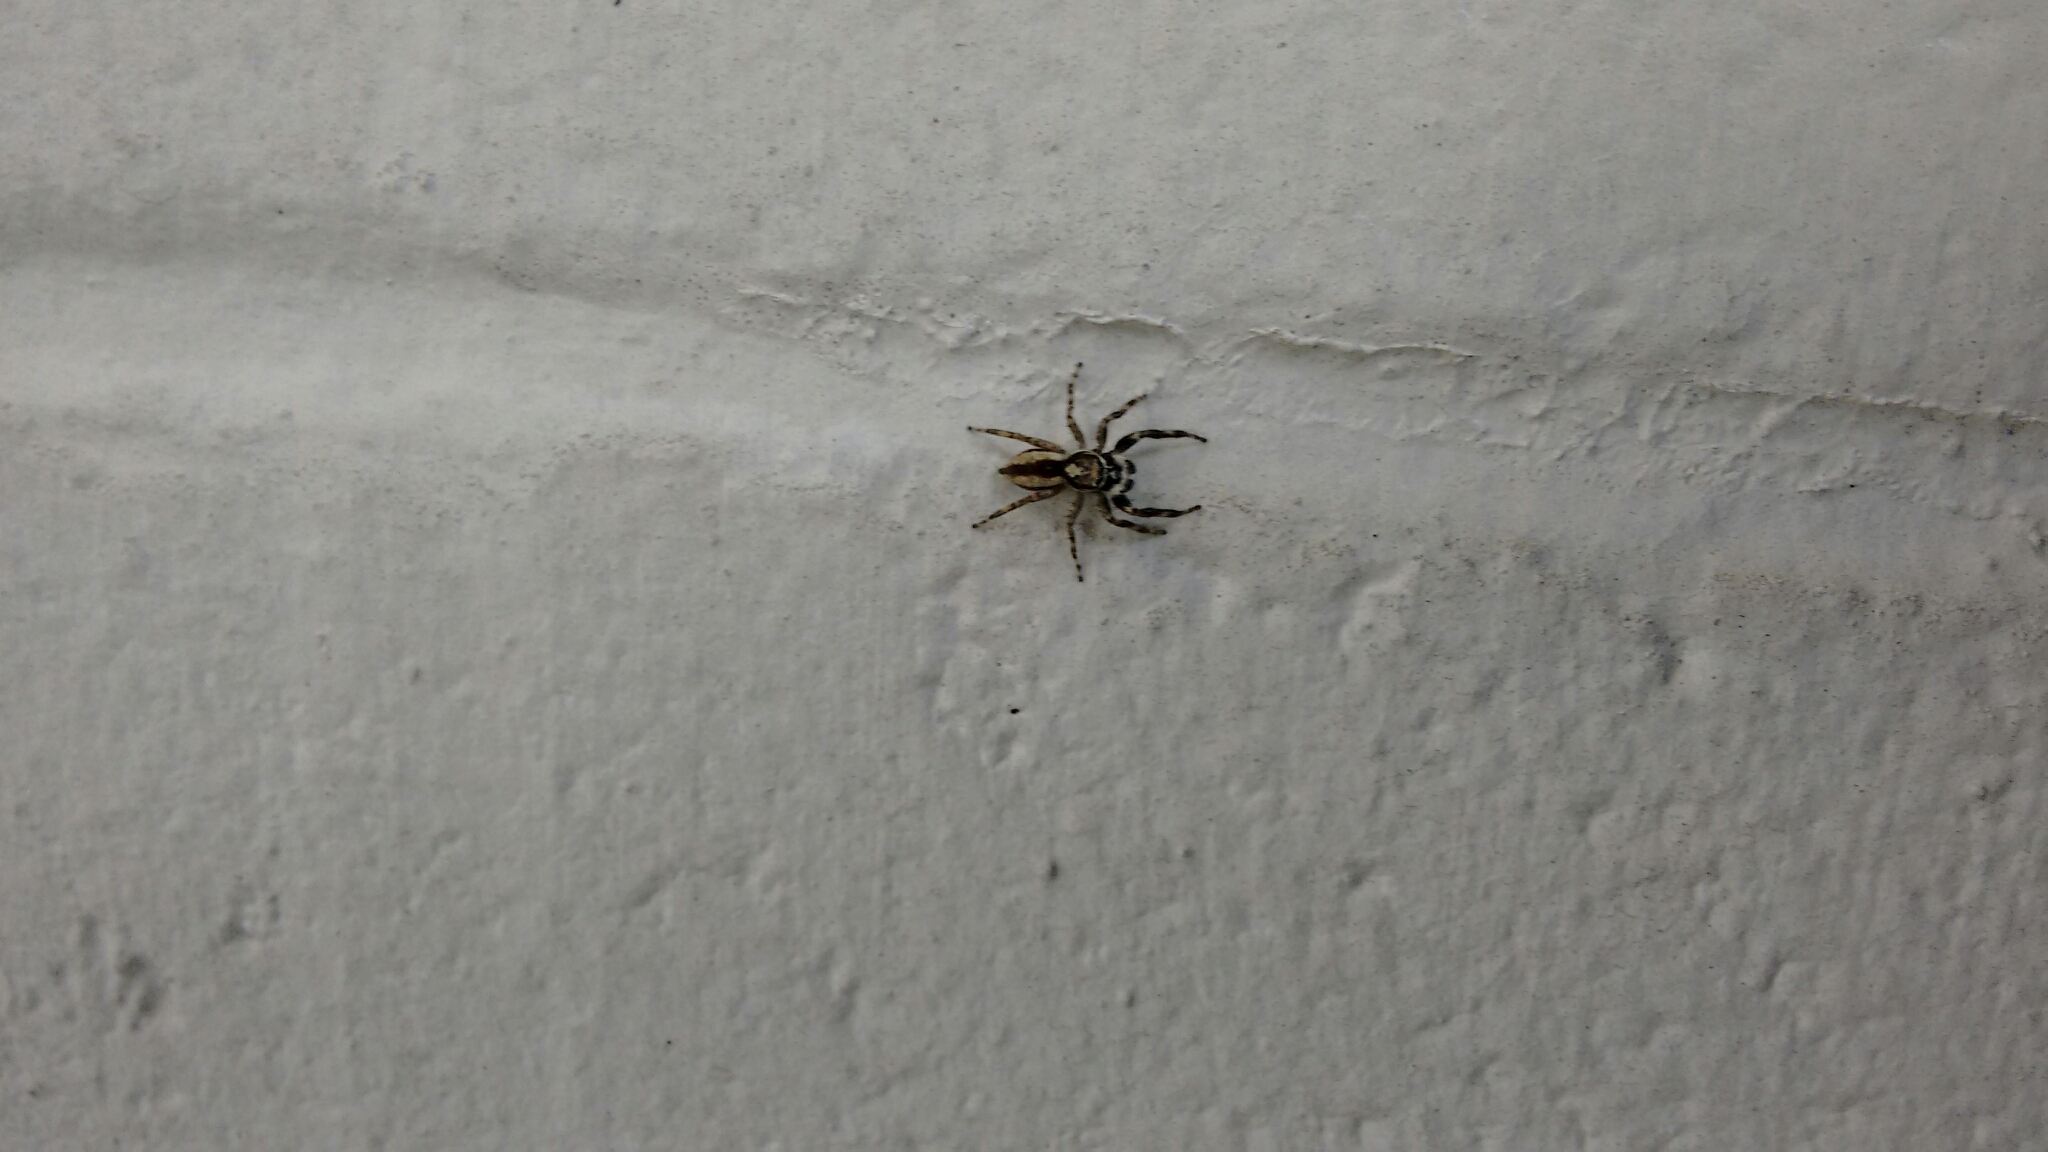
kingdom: Animalia
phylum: Arthropoda
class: Arachnida
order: Araneae
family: Salticidae
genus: Menemerus
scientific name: Menemerus bivittatus
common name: Gray wall jumper
